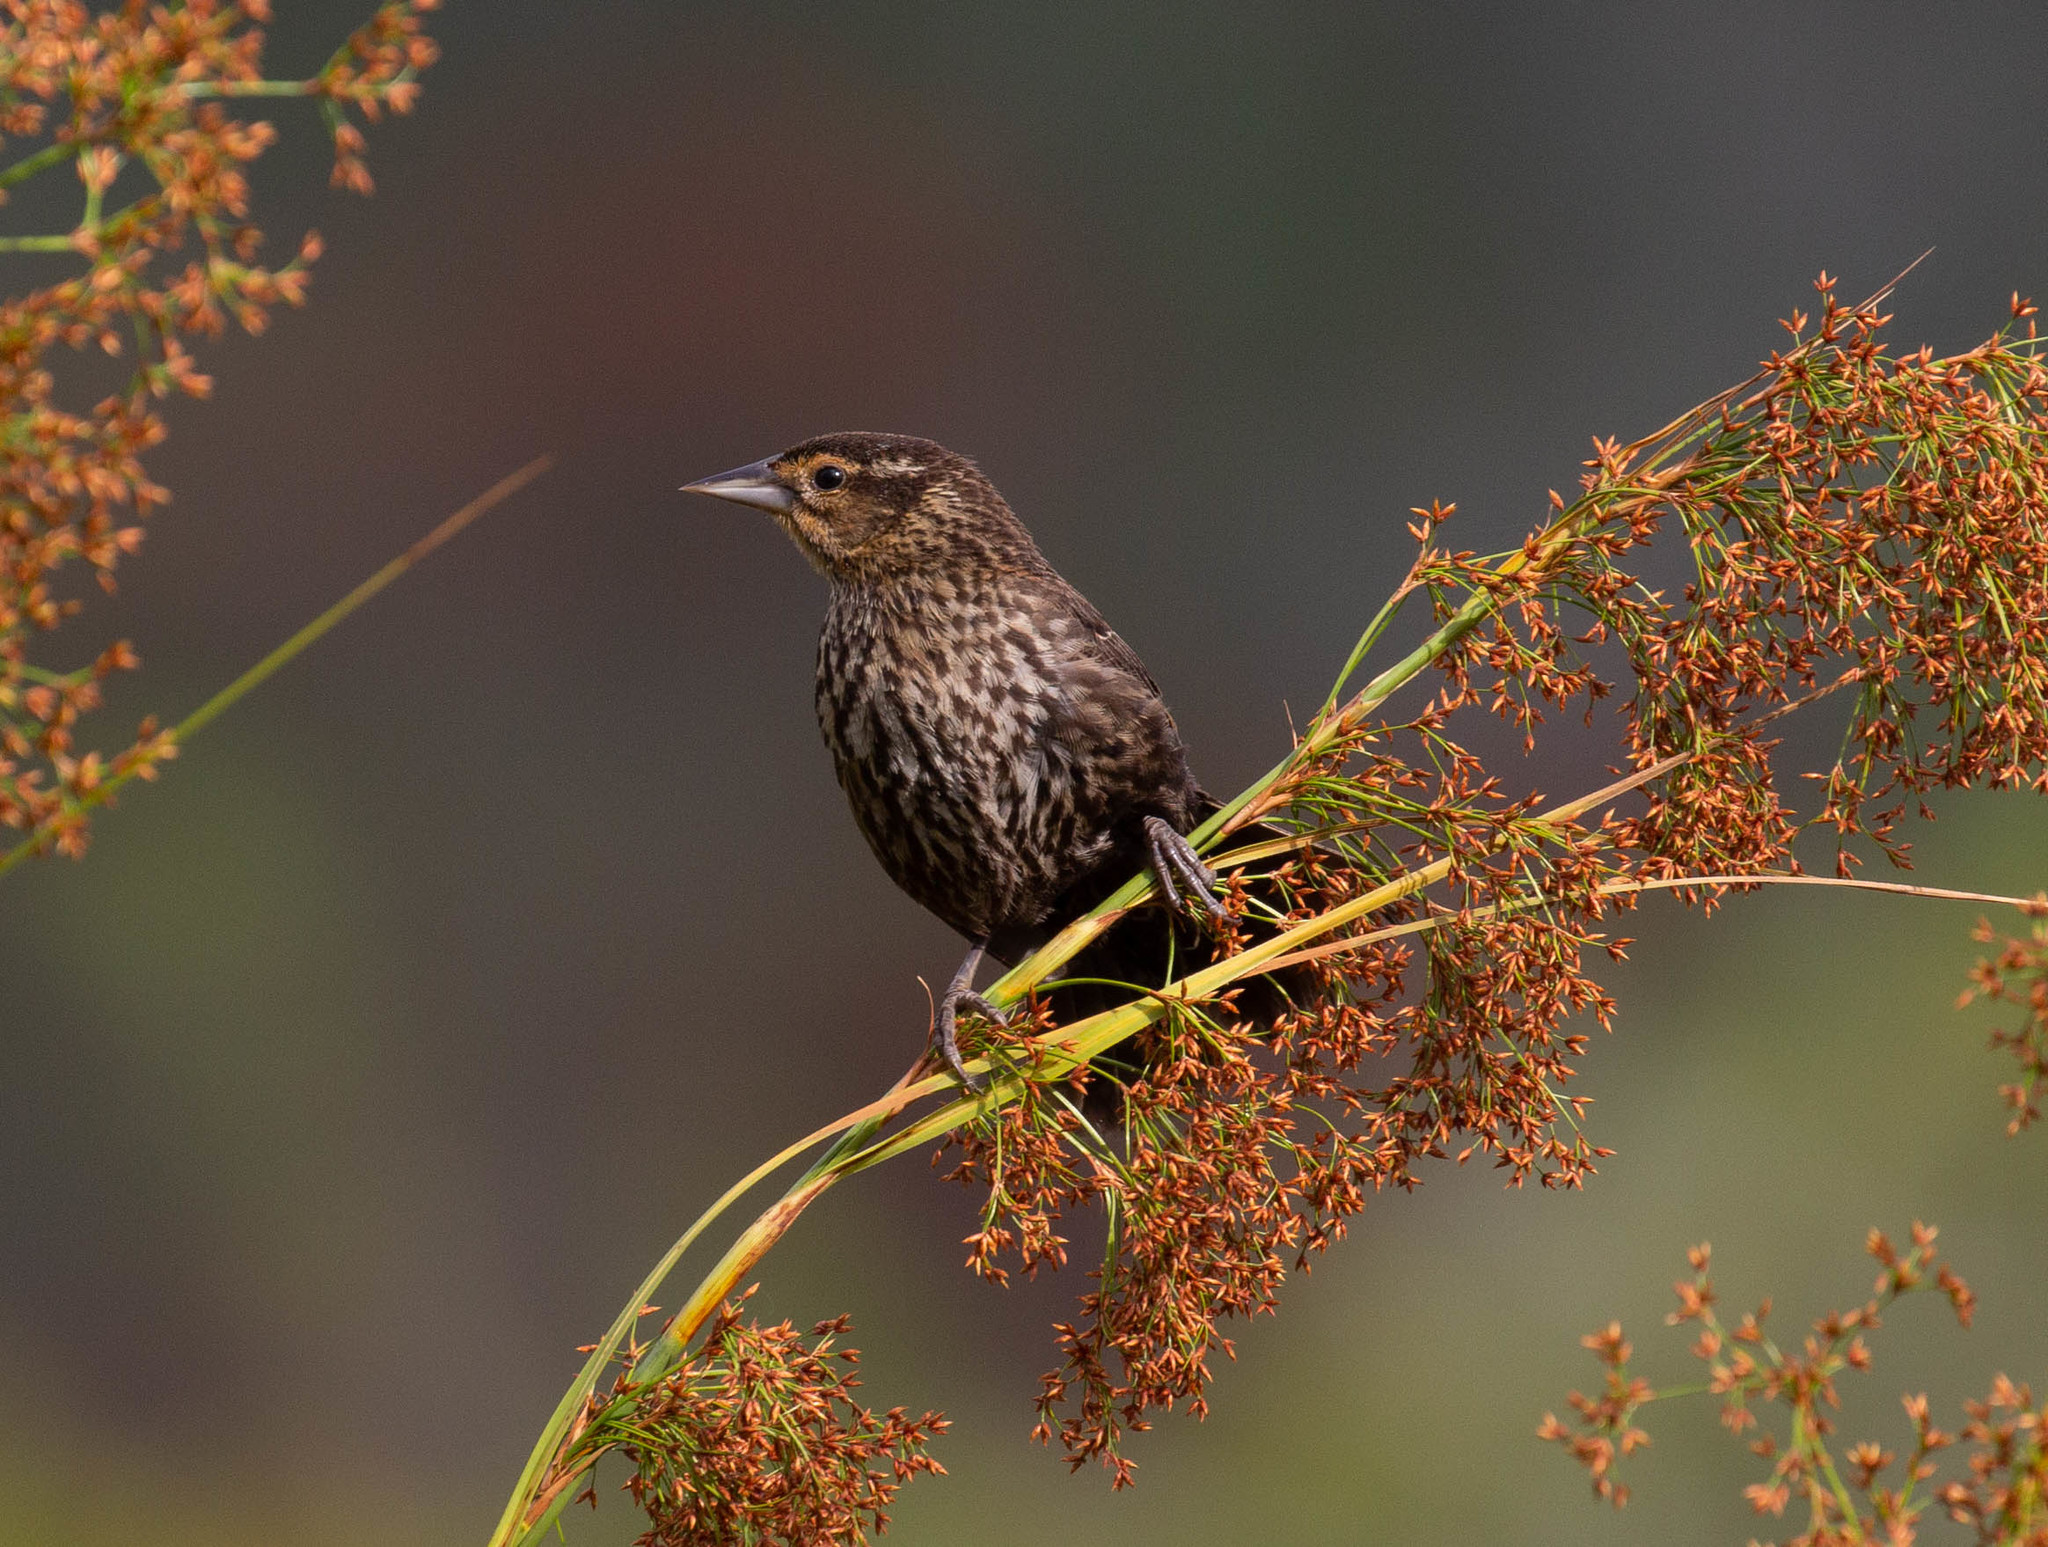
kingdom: Animalia
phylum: Chordata
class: Aves
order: Passeriformes
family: Icteridae
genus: Agelaius
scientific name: Agelaius phoeniceus
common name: Red-winged blackbird
